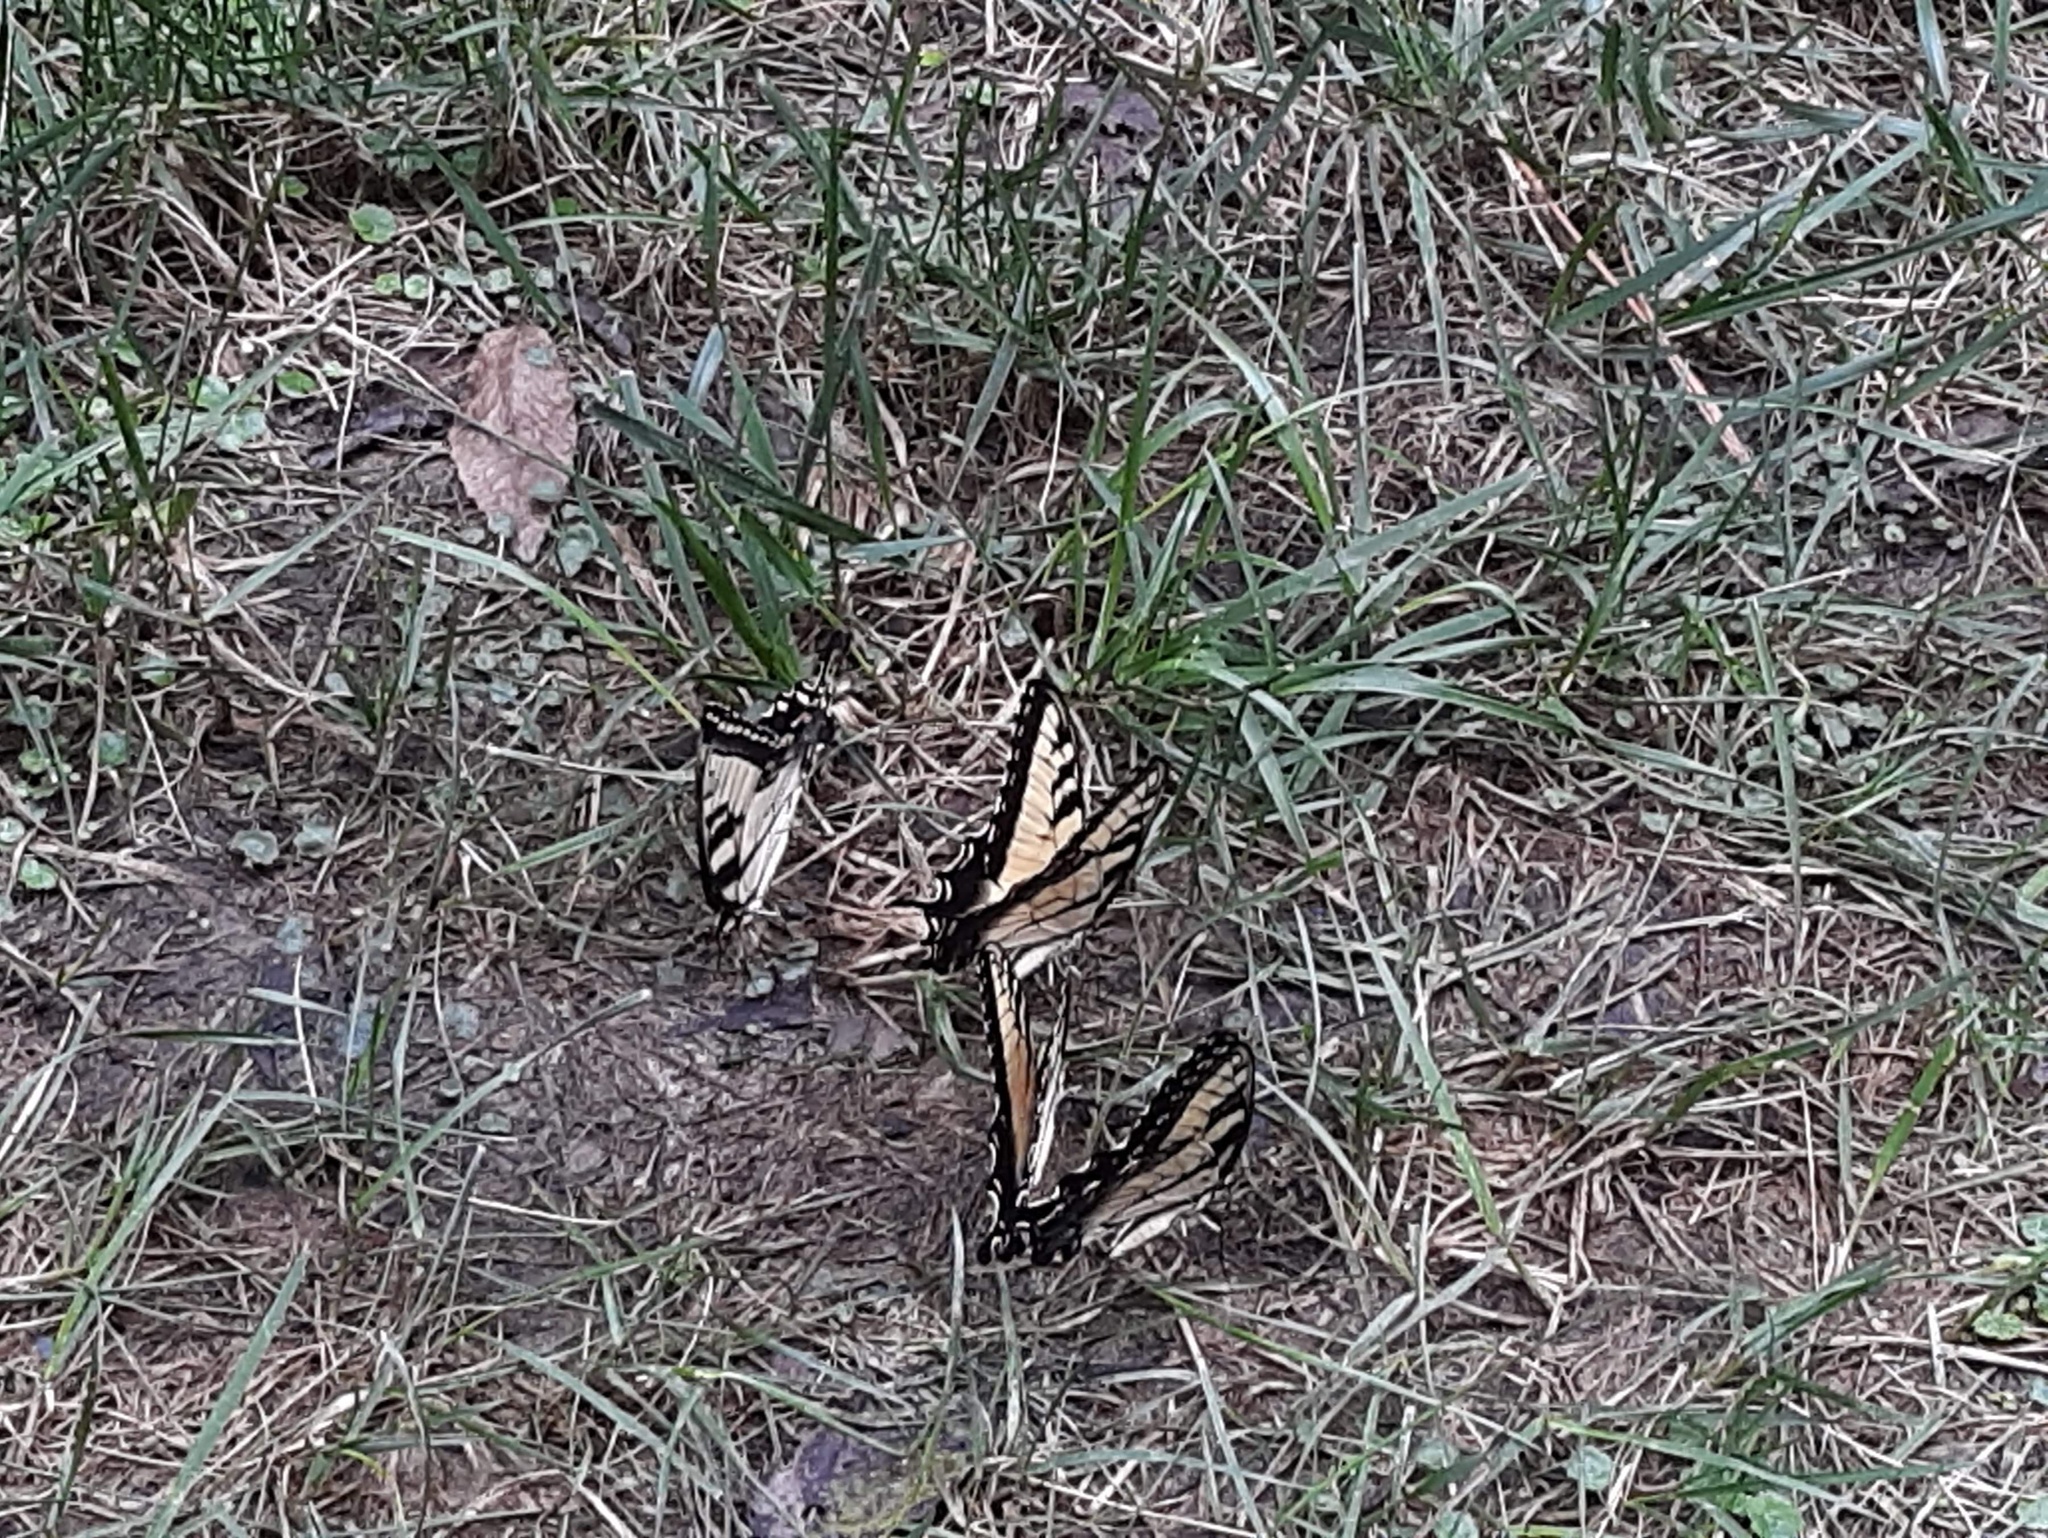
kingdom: Animalia
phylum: Arthropoda
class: Insecta
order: Lepidoptera
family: Papilionidae
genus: Papilio
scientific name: Papilio glaucus
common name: Tiger swallowtail
